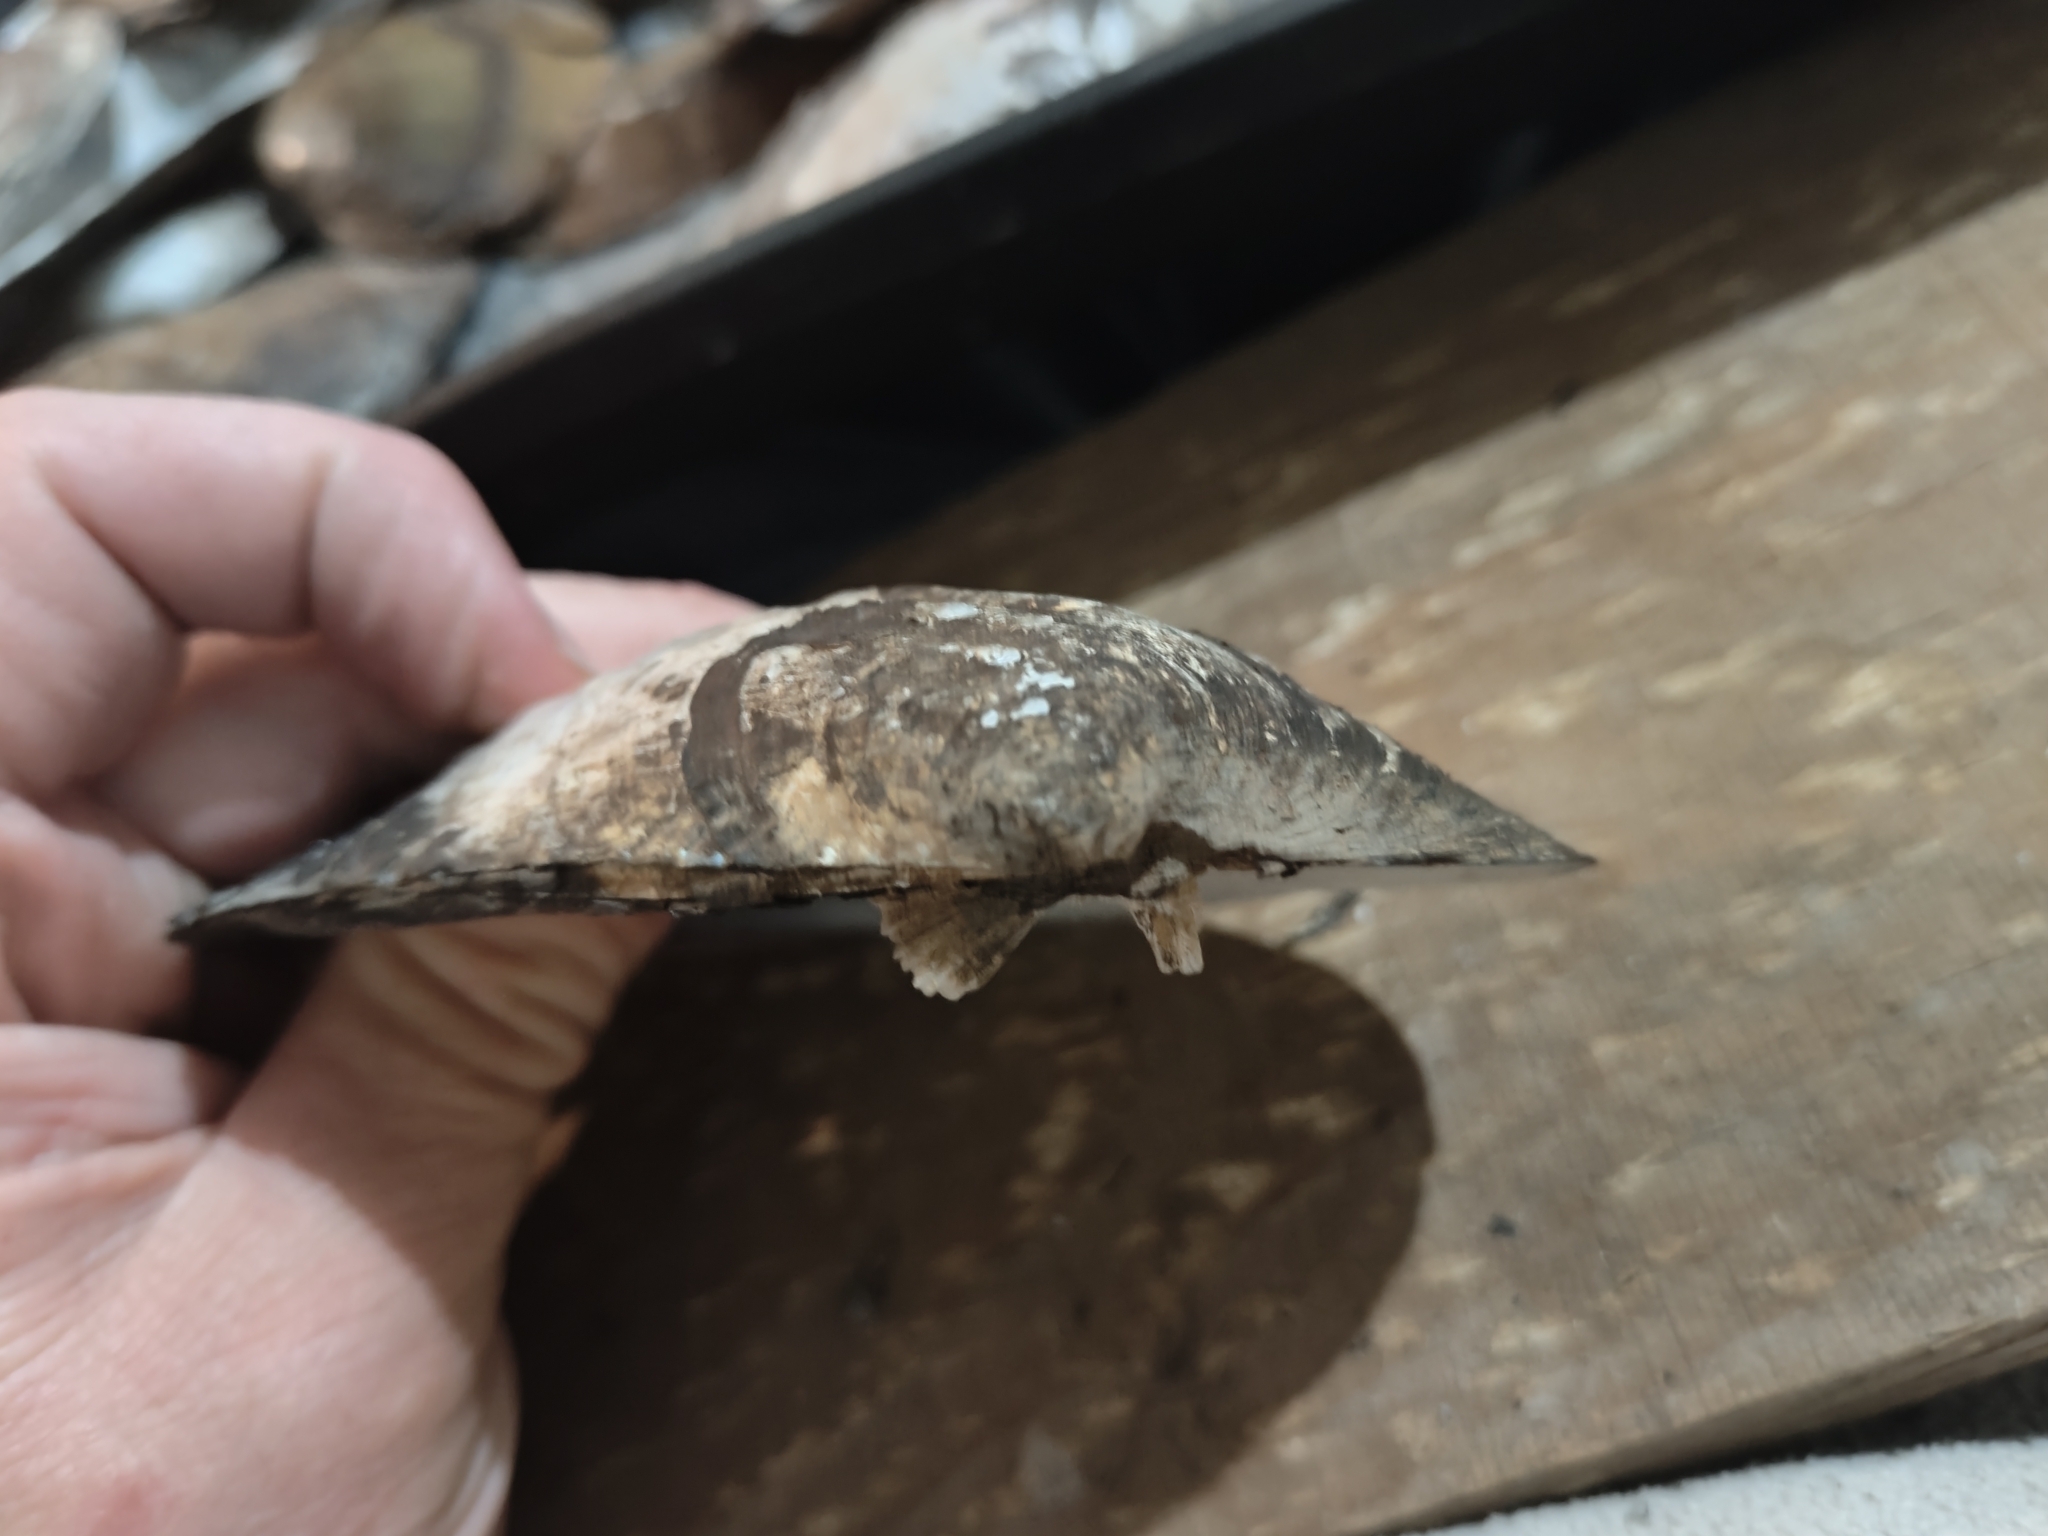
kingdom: Animalia
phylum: Mollusca
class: Bivalvia
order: Unionida
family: Unionidae
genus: Amblema
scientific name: Amblema plicata
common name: Threeridge
